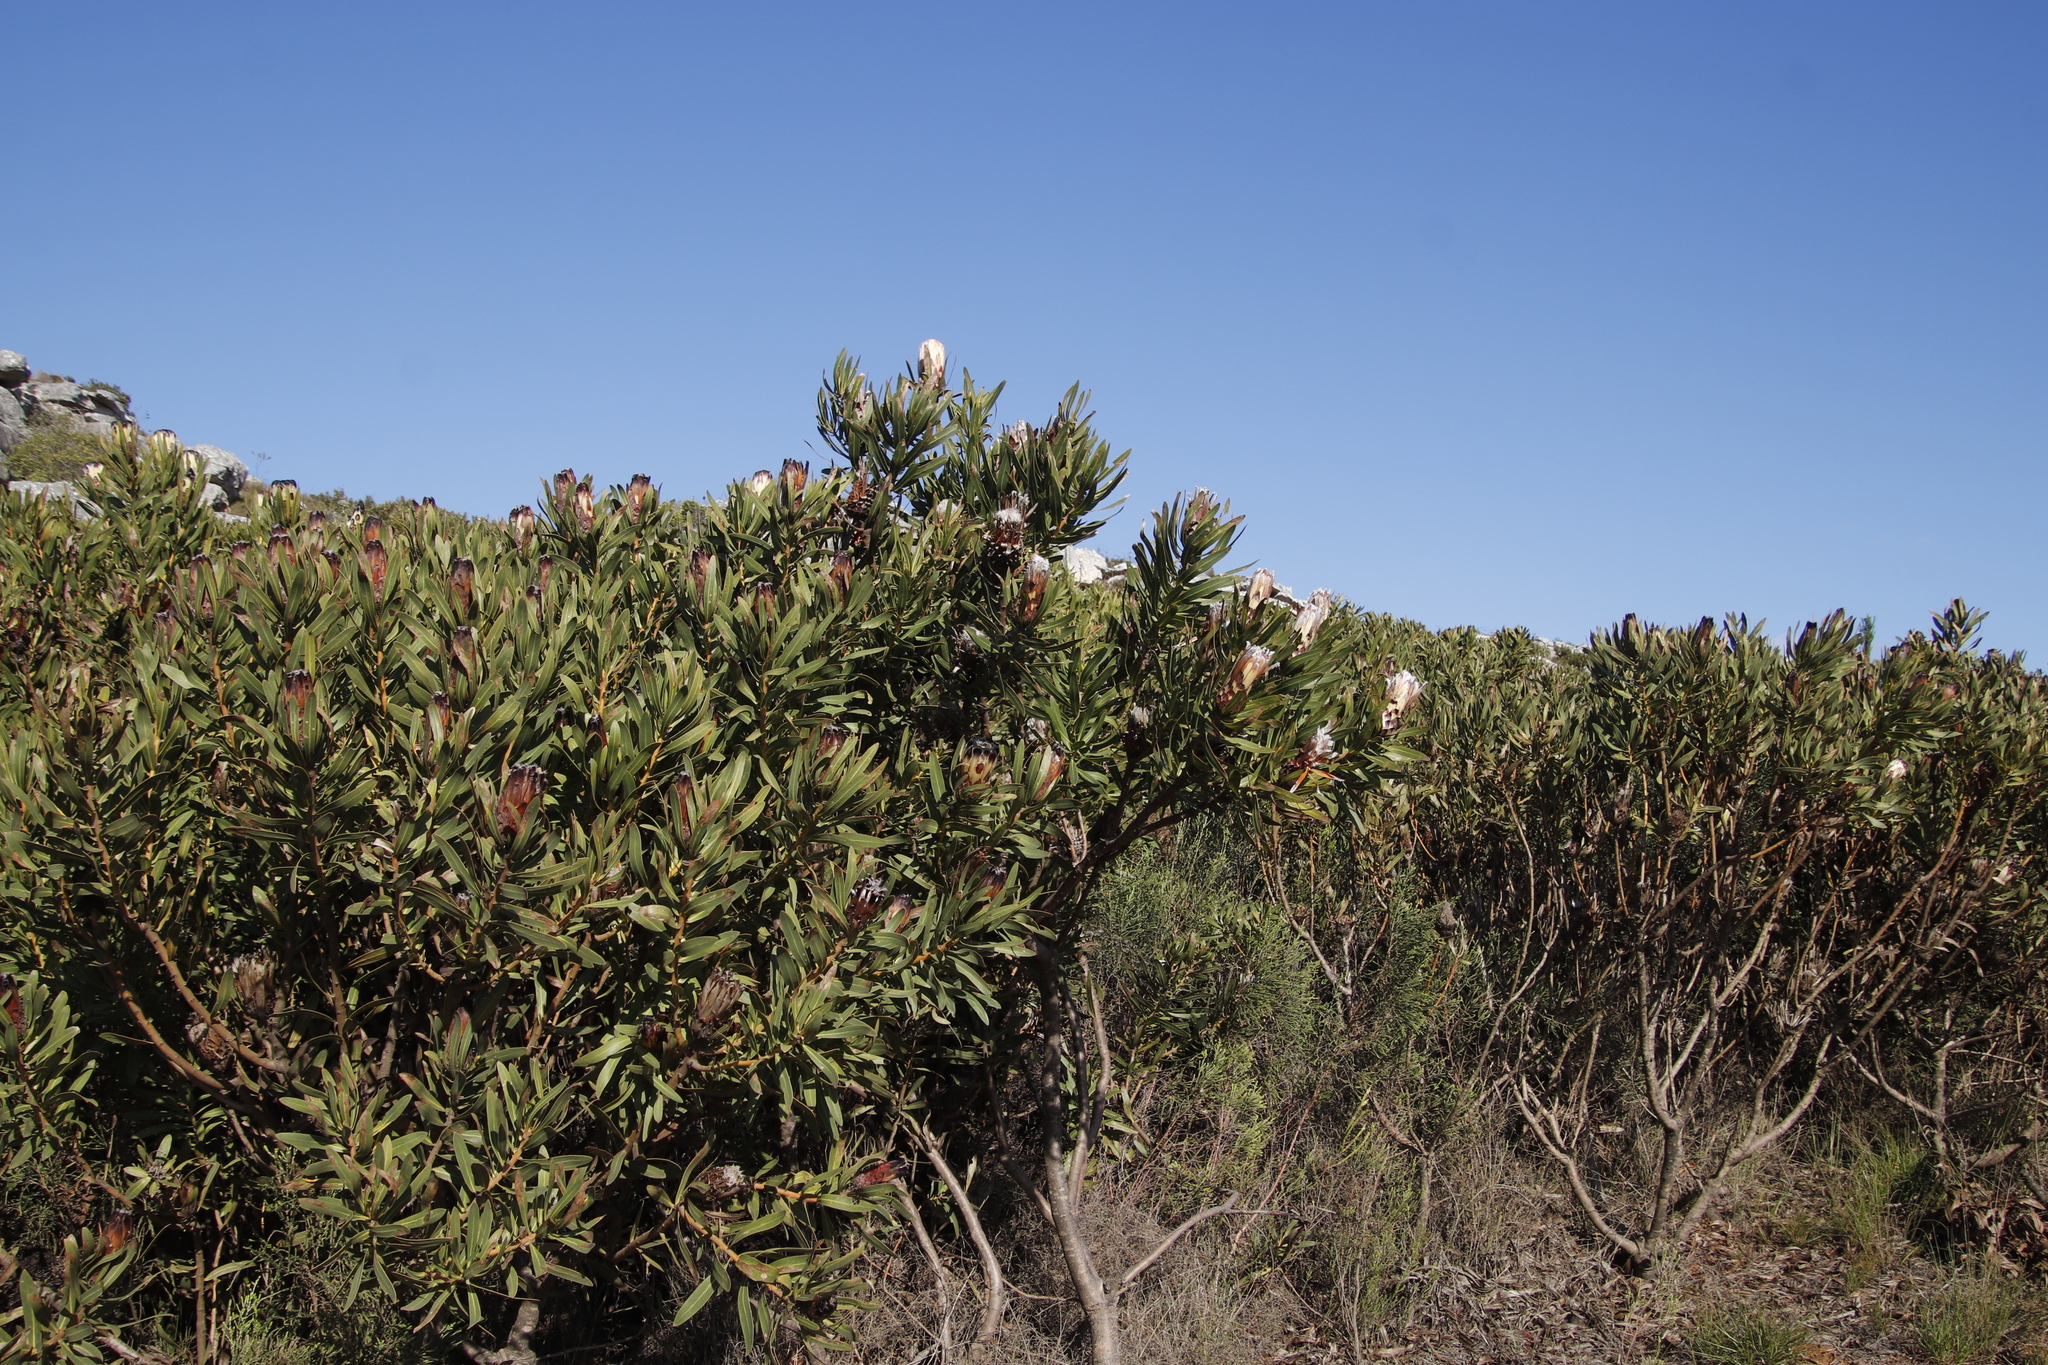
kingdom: Plantae
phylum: Tracheophyta
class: Magnoliopsida
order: Proteales
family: Proteaceae
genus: Protea
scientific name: Protea
